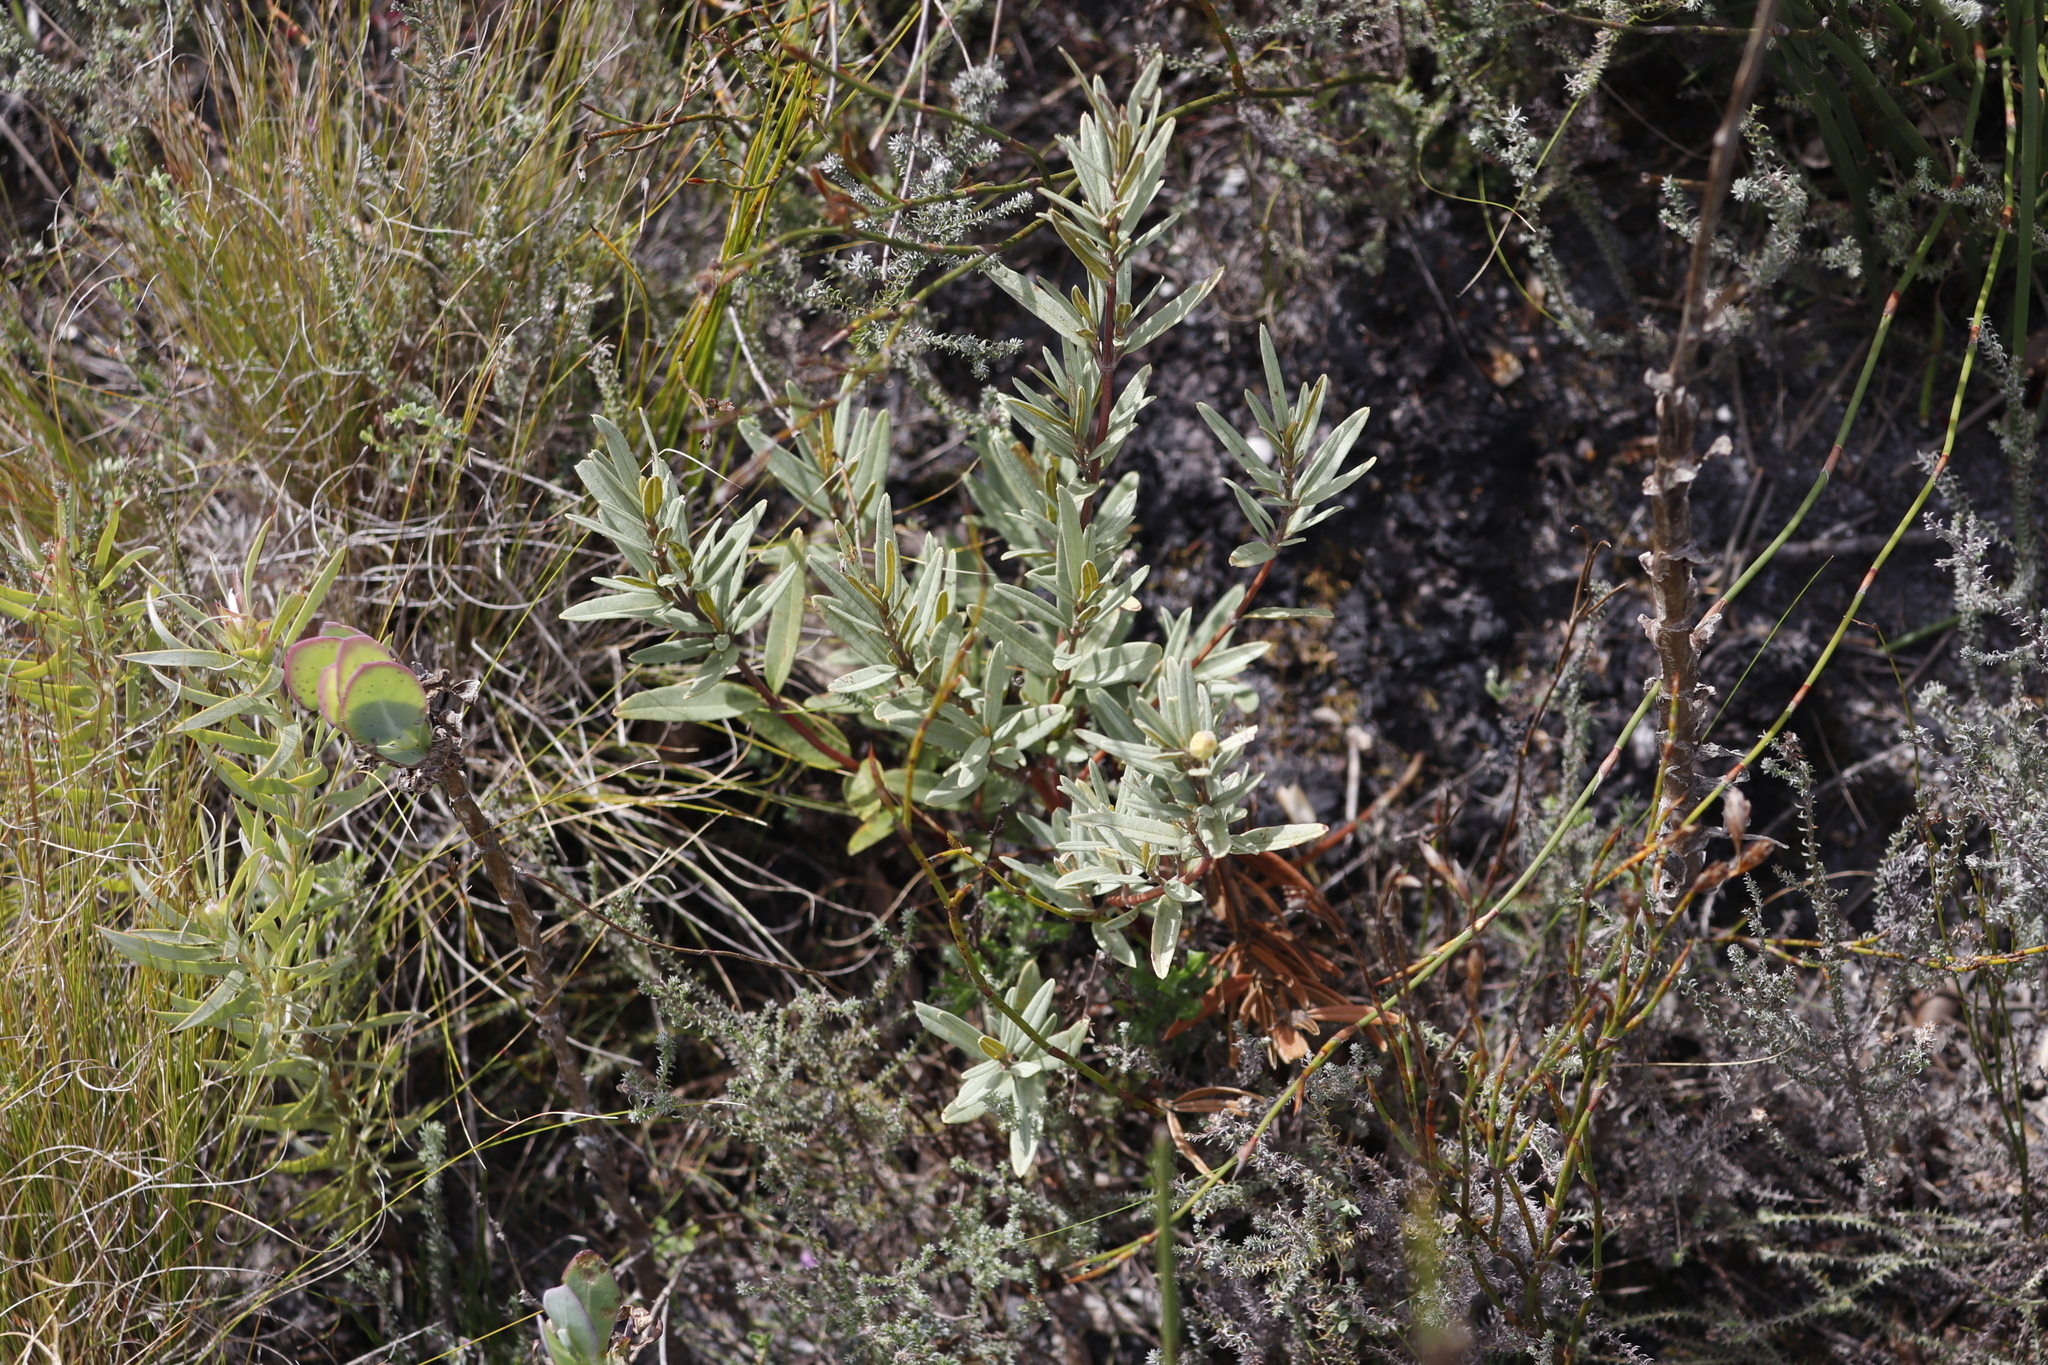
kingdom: Plantae
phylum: Tracheophyta
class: Magnoliopsida
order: Cornales
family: Grubbiaceae
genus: Grubbia
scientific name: Grubbia tomentosa
